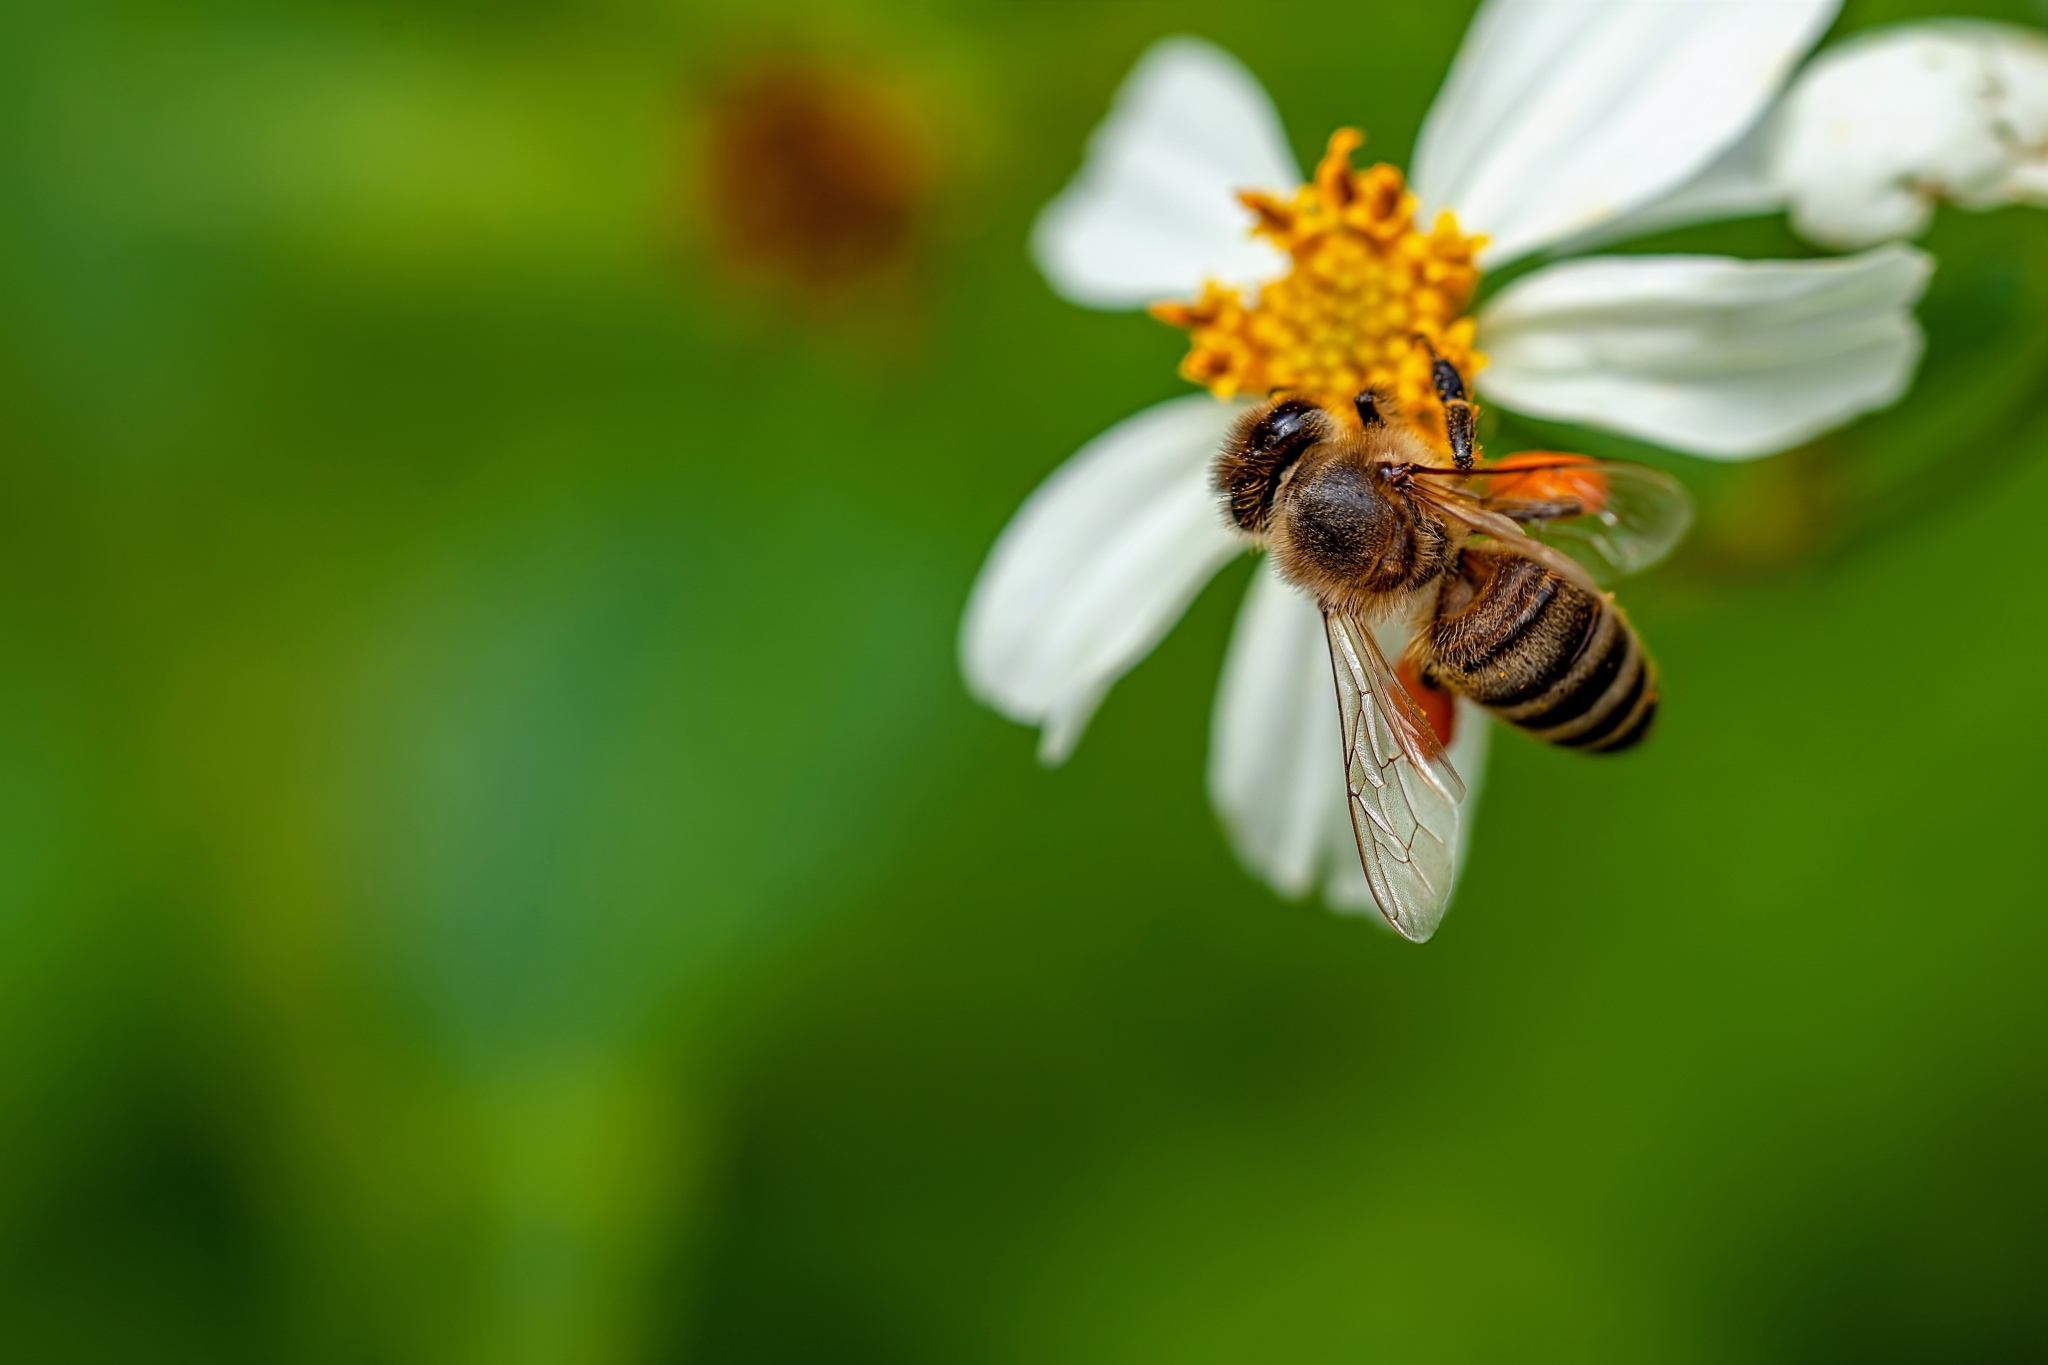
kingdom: Animalia
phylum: Arthropoda
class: Insecta
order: Hymenoptera
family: Apidae
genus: Apis
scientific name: Apis mellifera
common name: Honey bee
